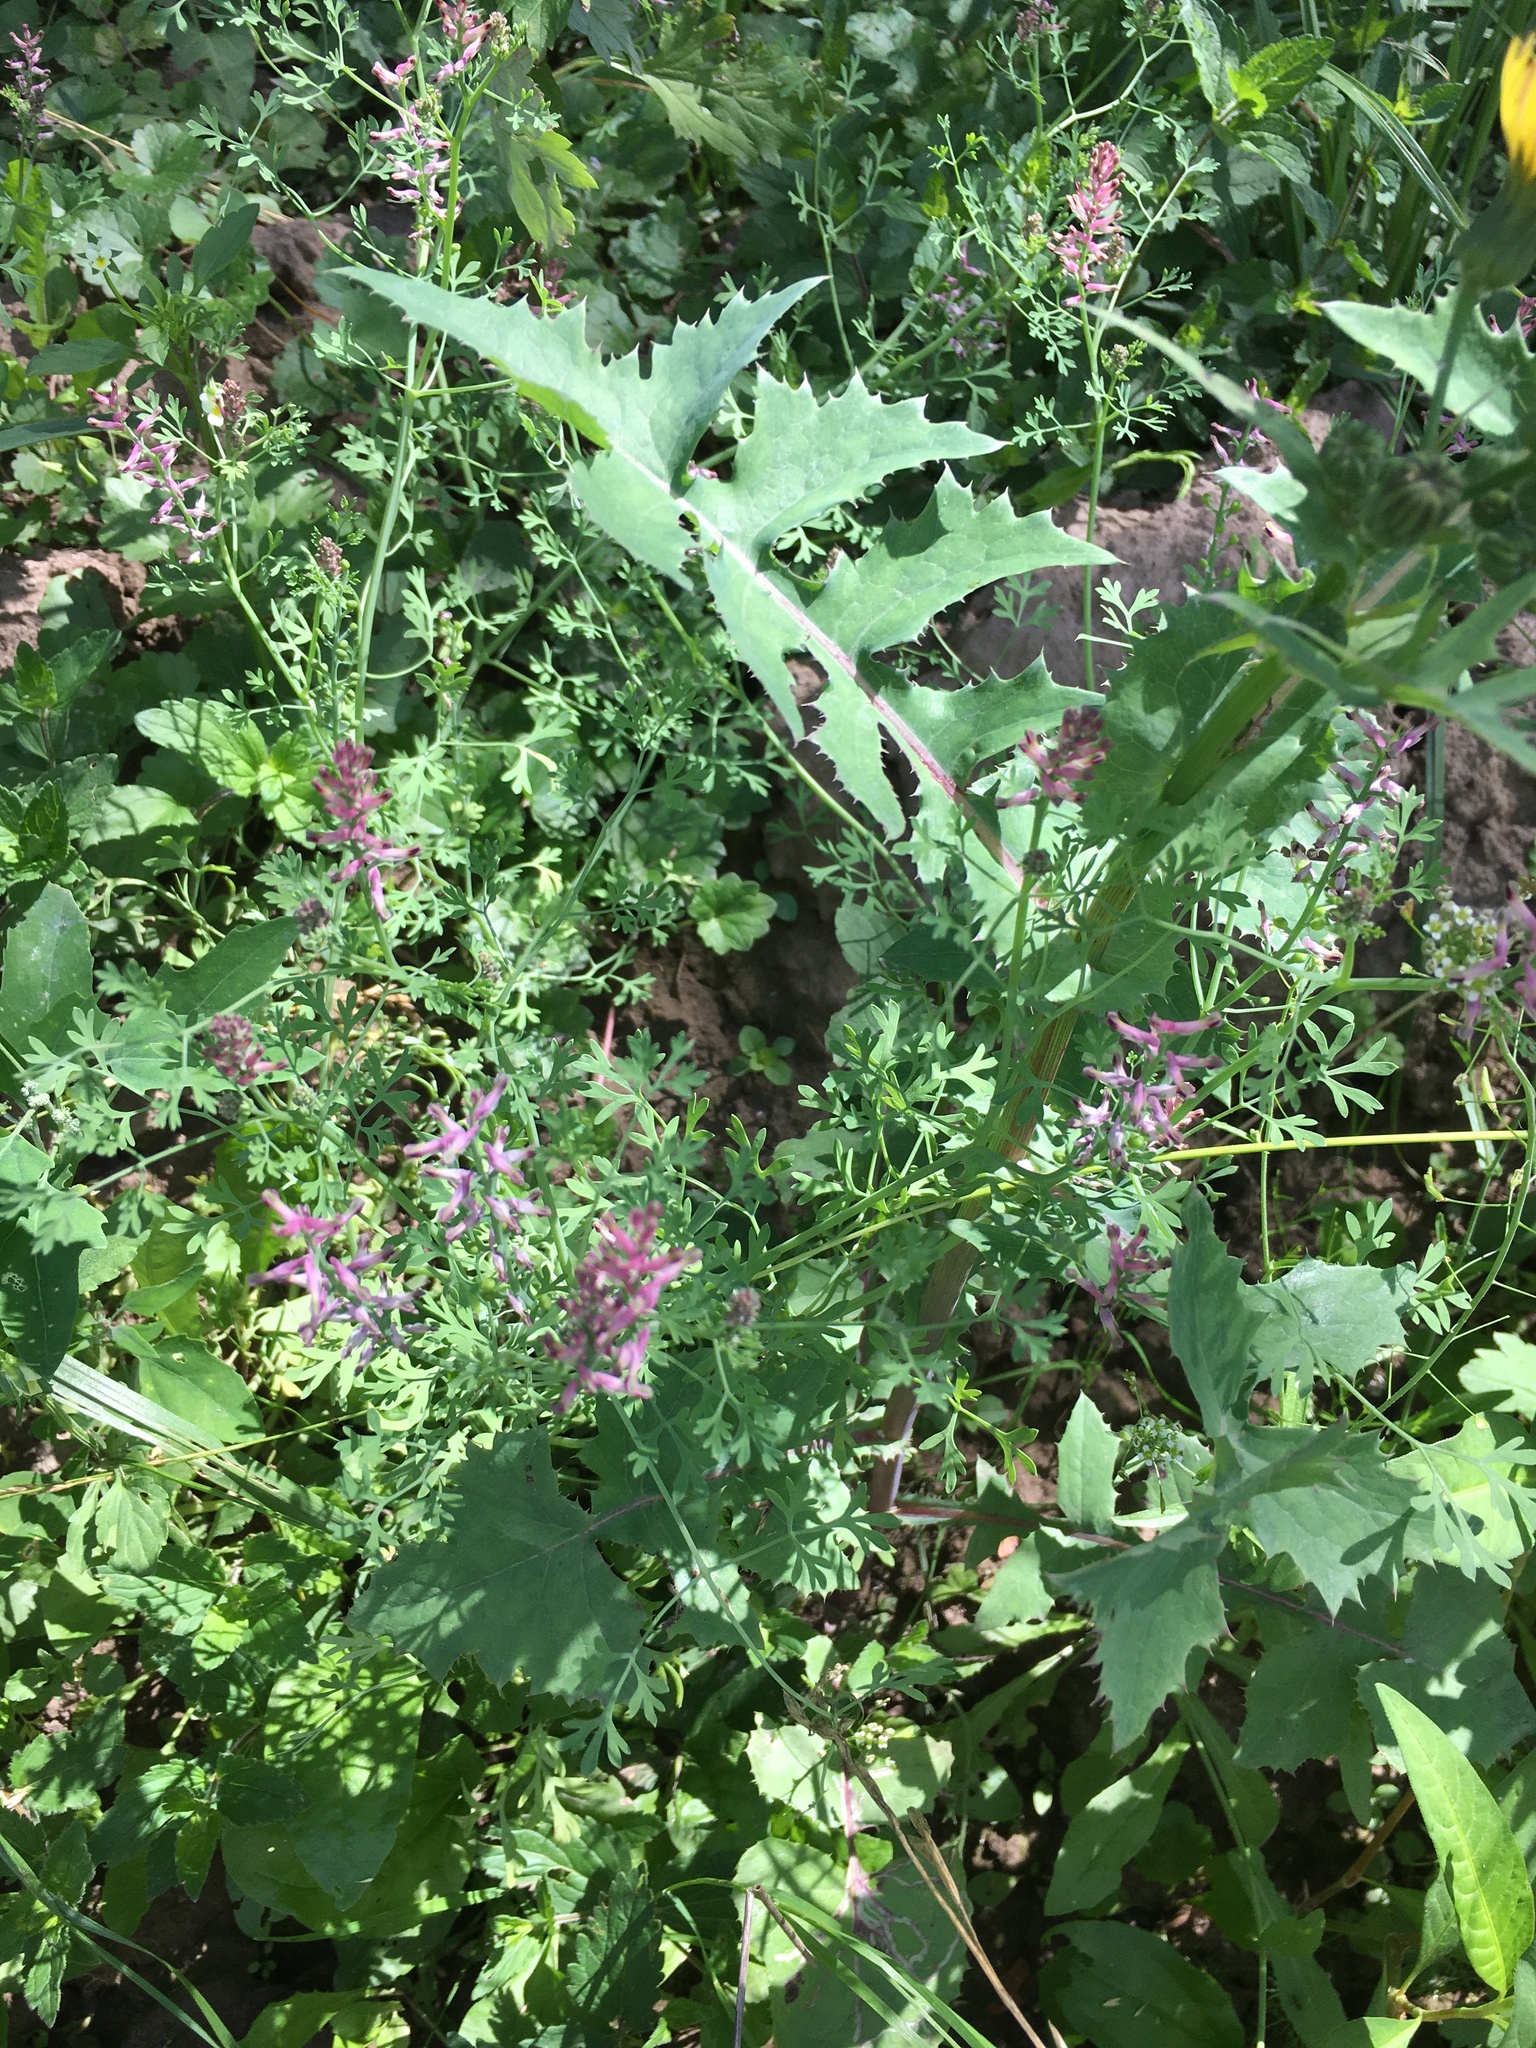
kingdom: Plantae
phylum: Tracheophyta
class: Magnoliopsida
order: Ranunculales
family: Papaveraceae
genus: Fumaria
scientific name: Fumaria officinalis
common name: Common fumitory
